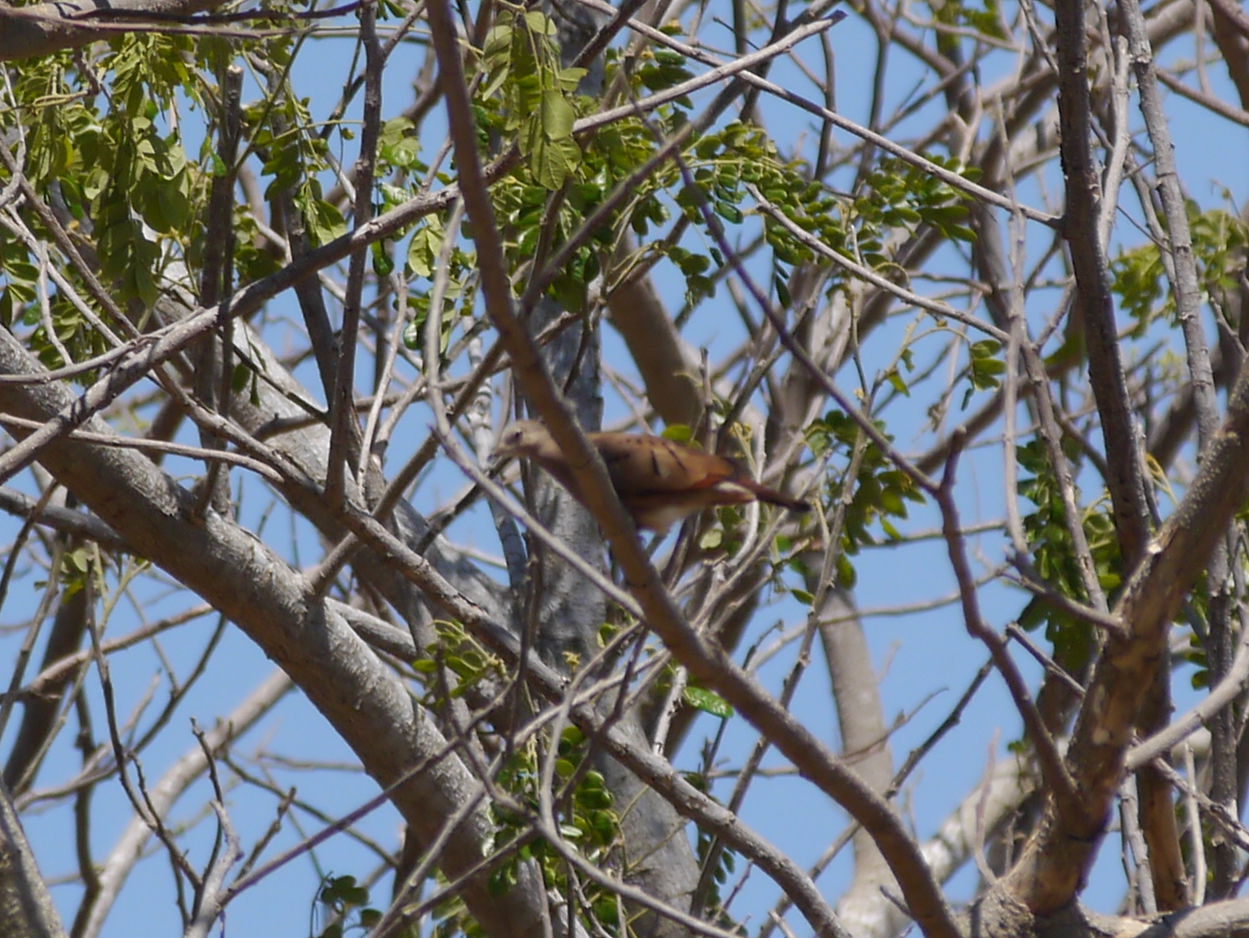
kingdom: Animalia
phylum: Chordata
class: Aves
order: Columbiformes
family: Columbidae
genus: Columbina
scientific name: Columbina talpacoti
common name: Ruddy ground dove
